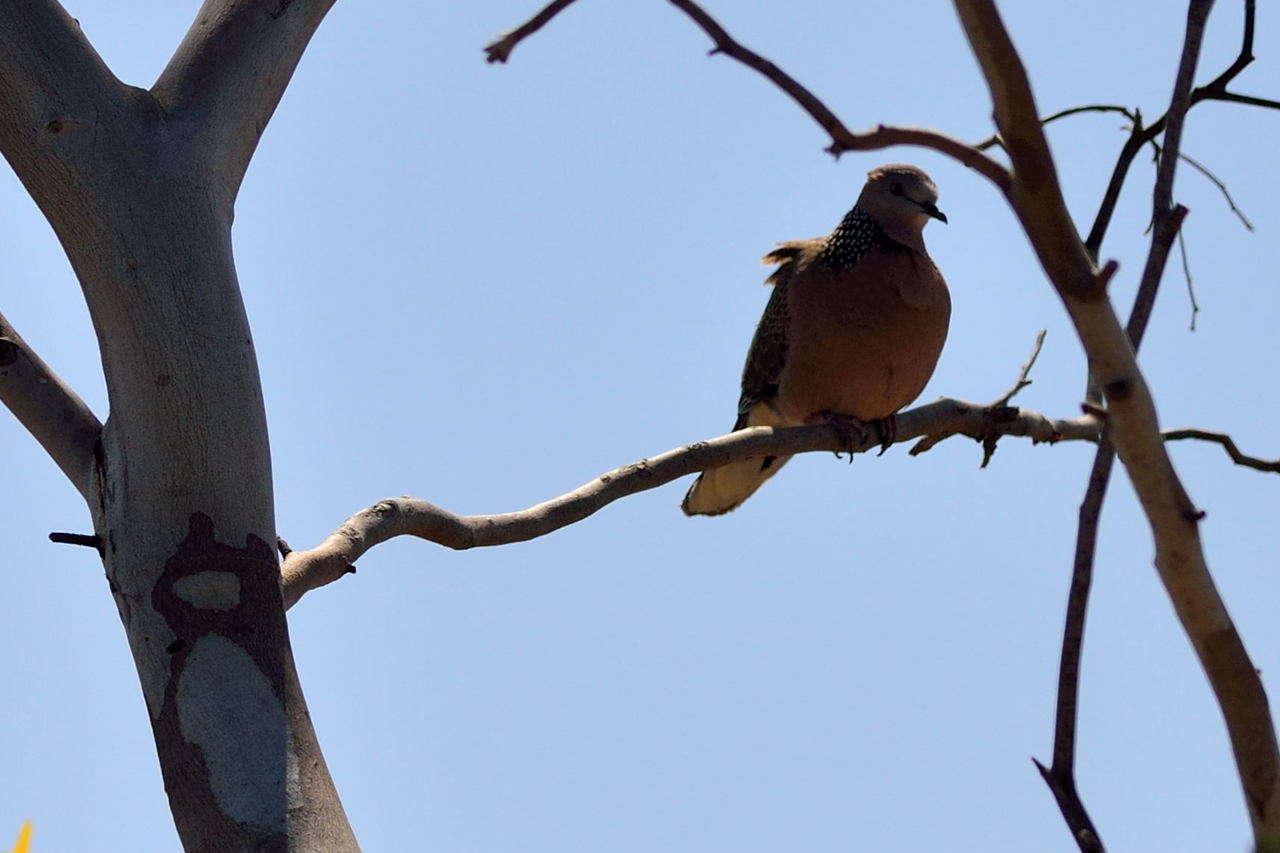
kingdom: Animalia
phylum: Chordata
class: Aves
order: Columbiformes
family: Columbidae
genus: Spilopelia
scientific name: Spilopelia chinensis
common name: Spotted dove
